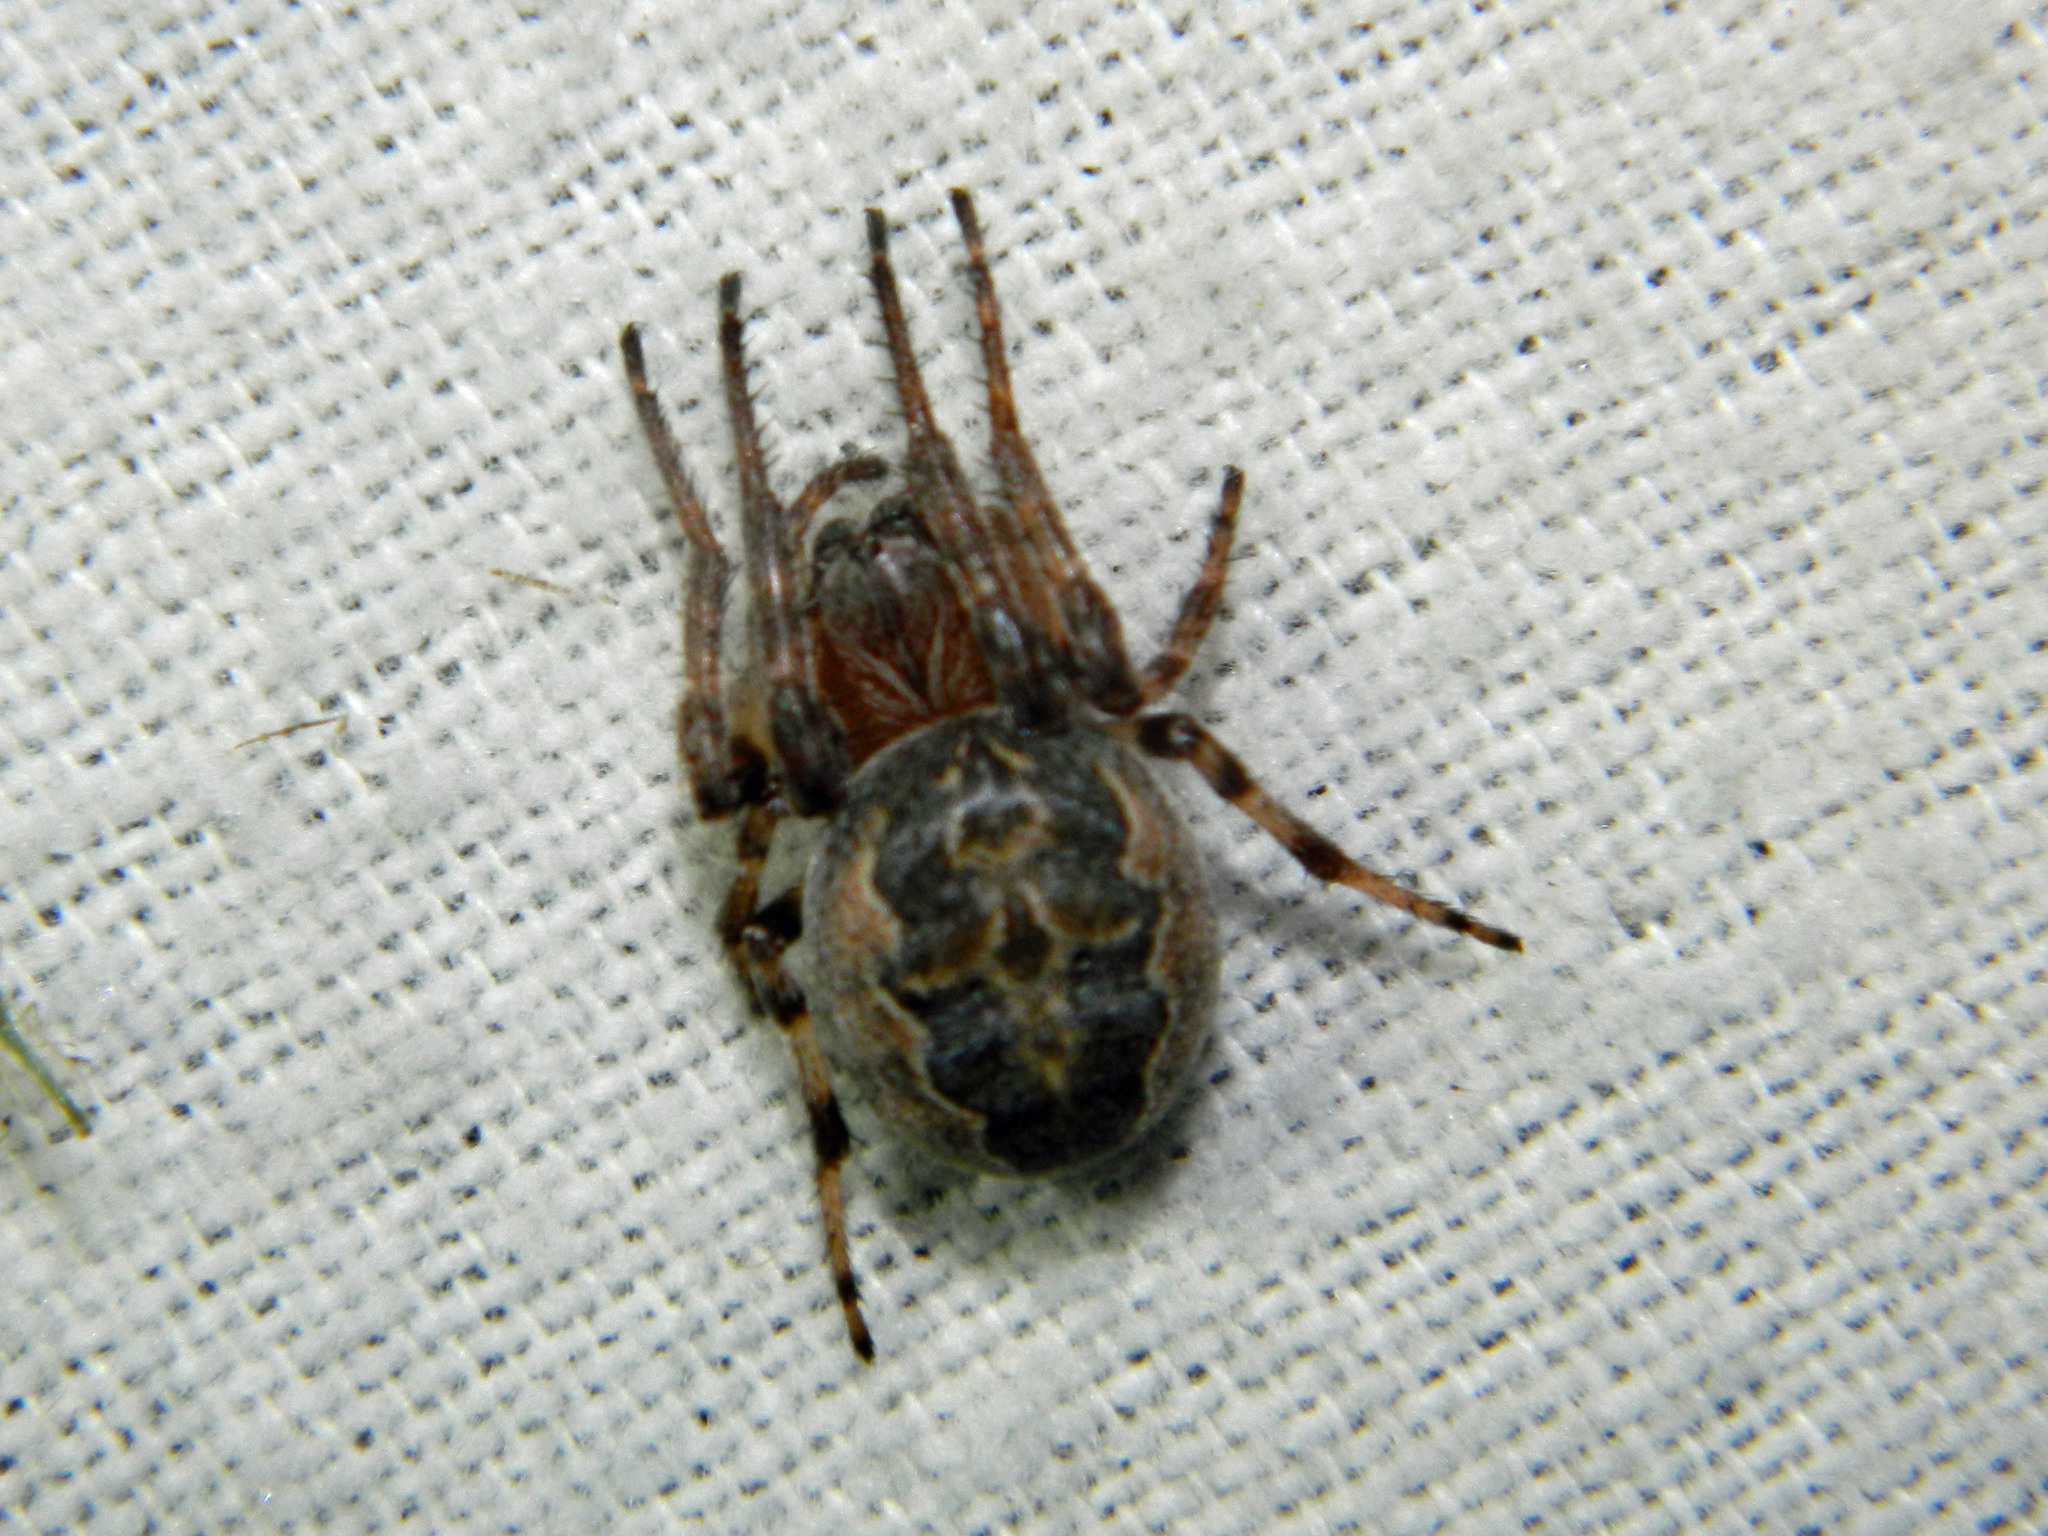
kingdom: Animalia
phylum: Arthropoda
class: Arachnida
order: Araneae
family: Araneidae
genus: Larinioides
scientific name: Larinioides cornutus
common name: Furrow orbweaver
